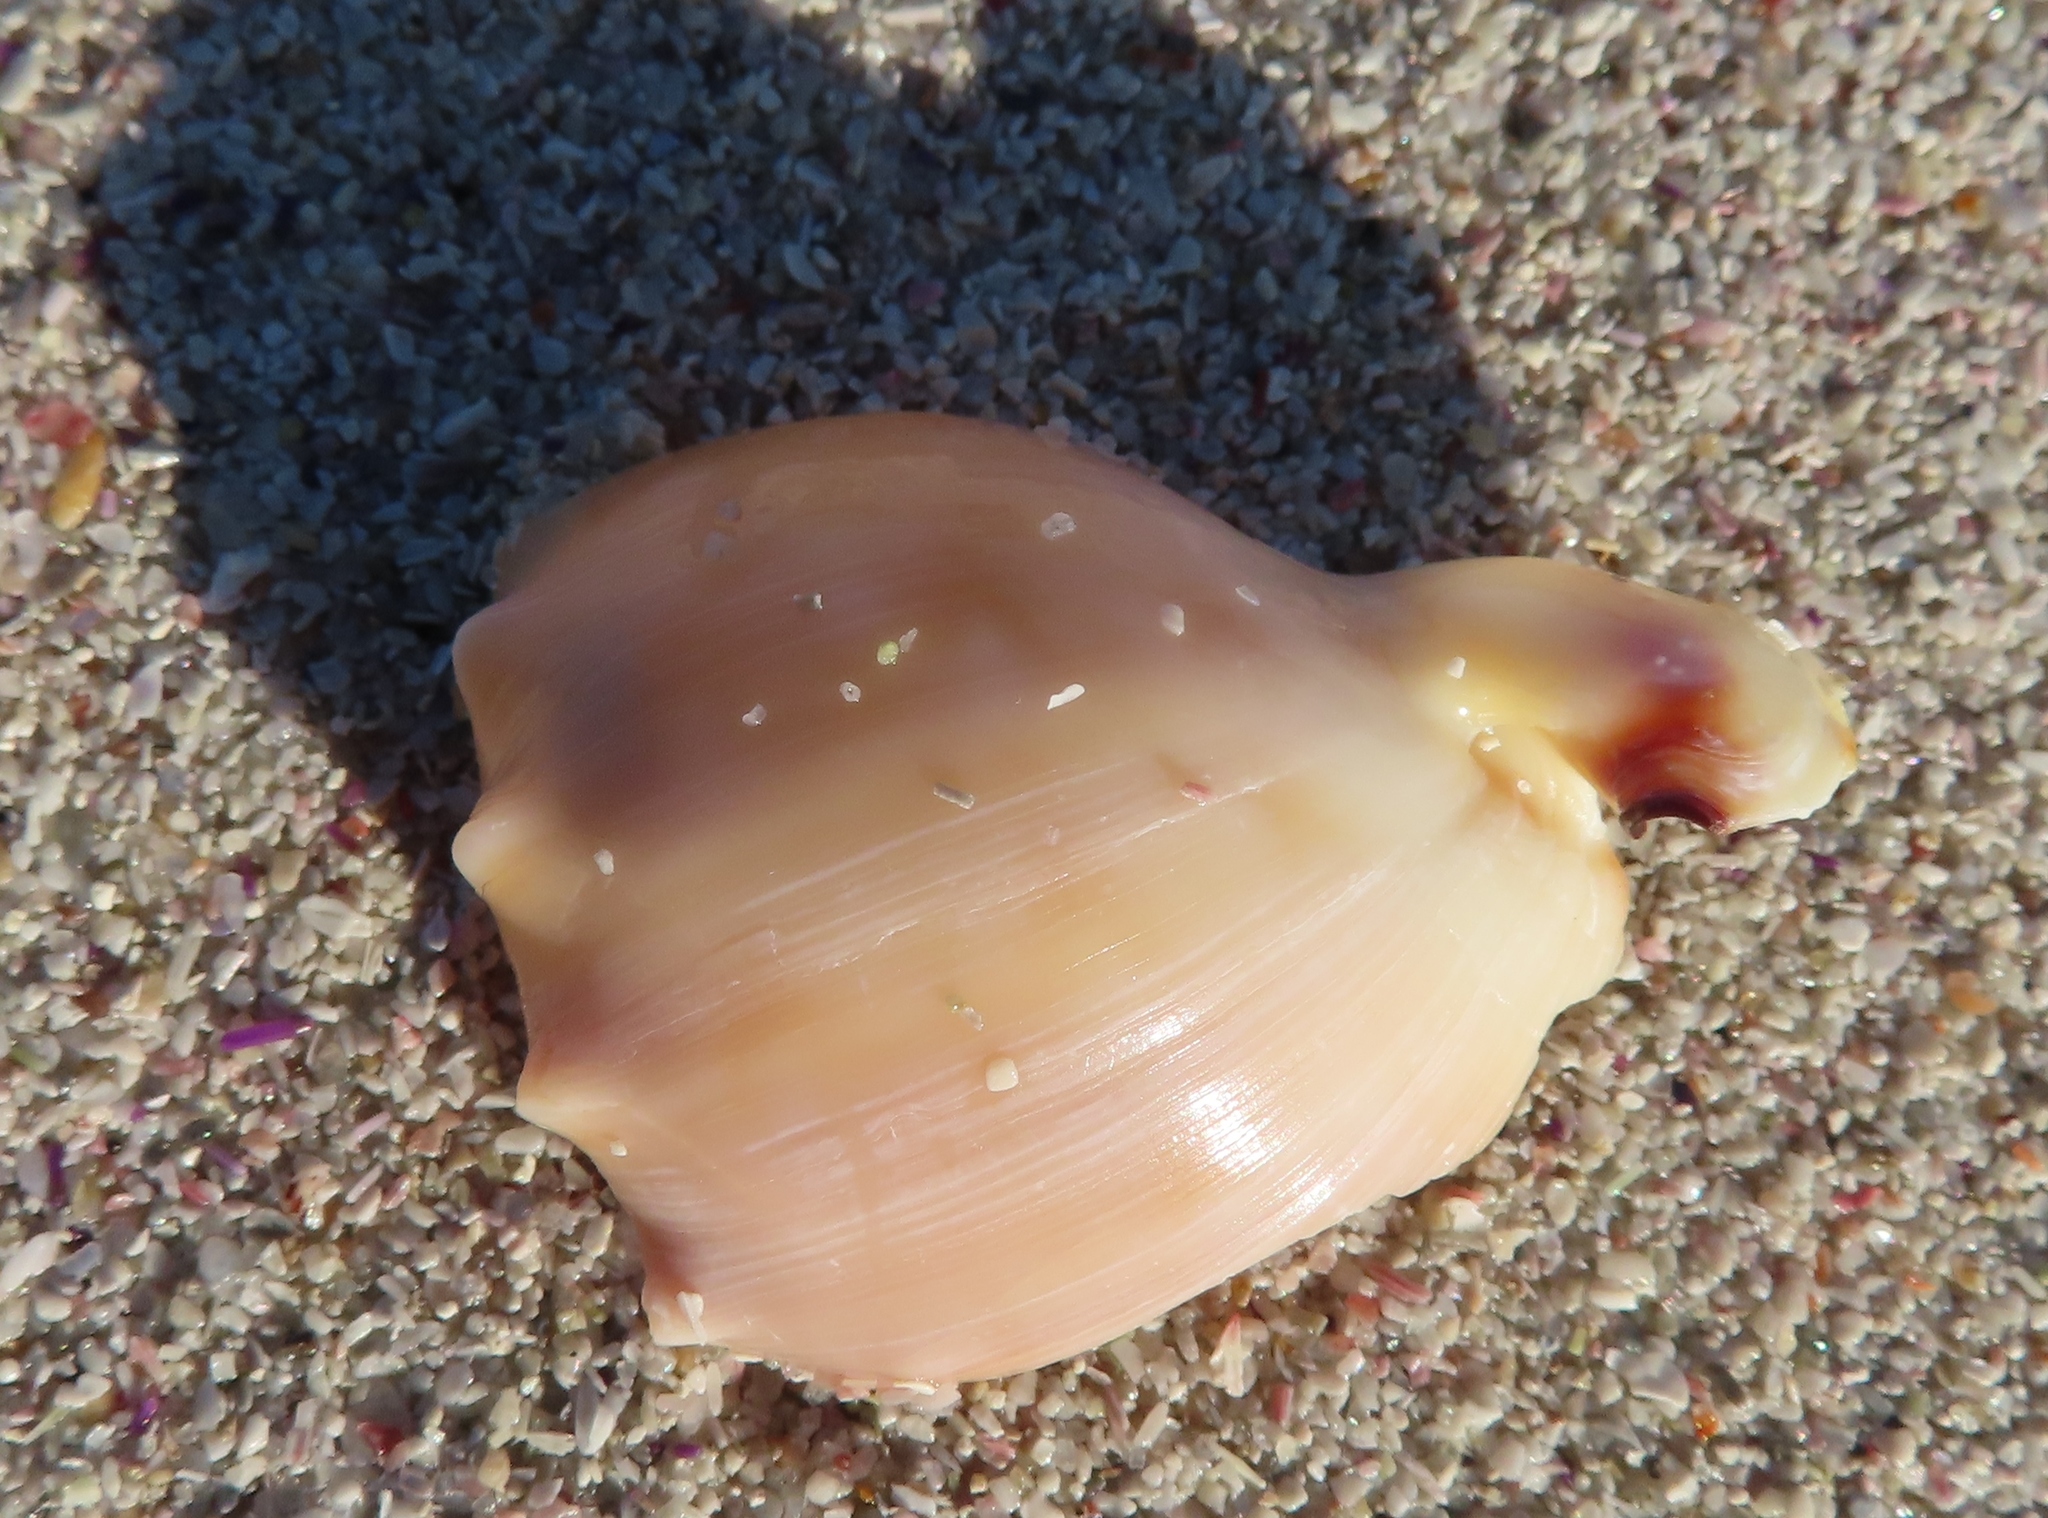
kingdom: Animalia
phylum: Mollusca
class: Gastropoda
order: Littorinimorpha
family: Cassidae
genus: Semicassis
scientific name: Semicassis zeylanica
